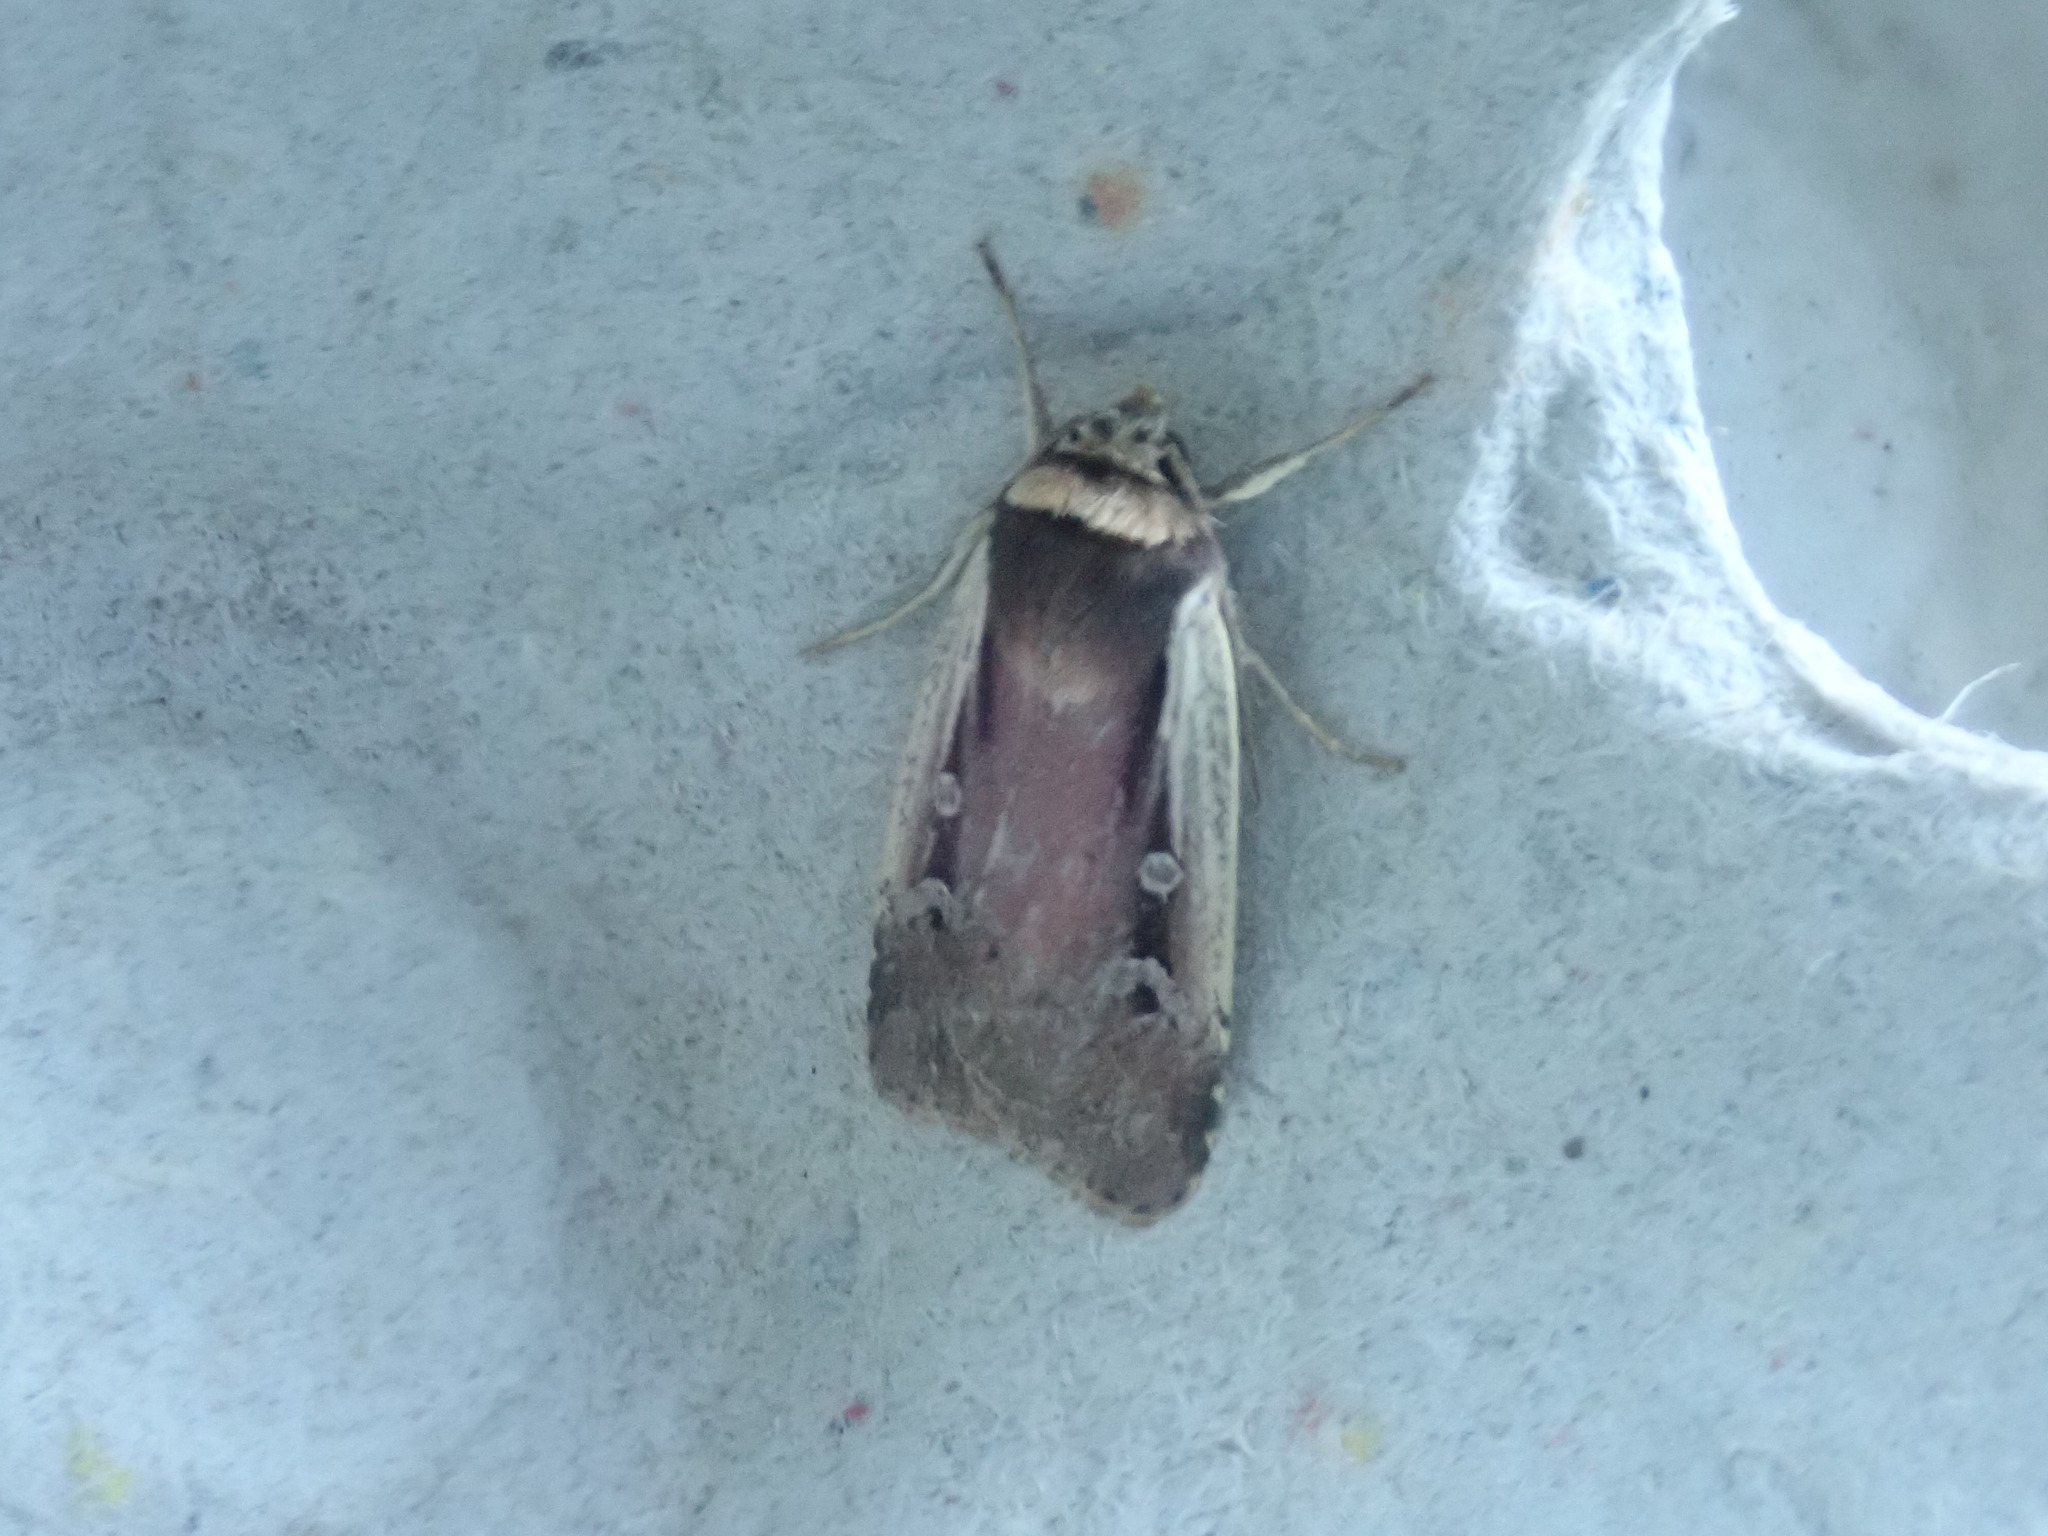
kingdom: Animalia
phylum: Arthropoda
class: Insecta
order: Lepidoptera
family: Noctuidae
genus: Ochropleura
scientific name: Ochropleura implecta
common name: Flame-shouldered dart
